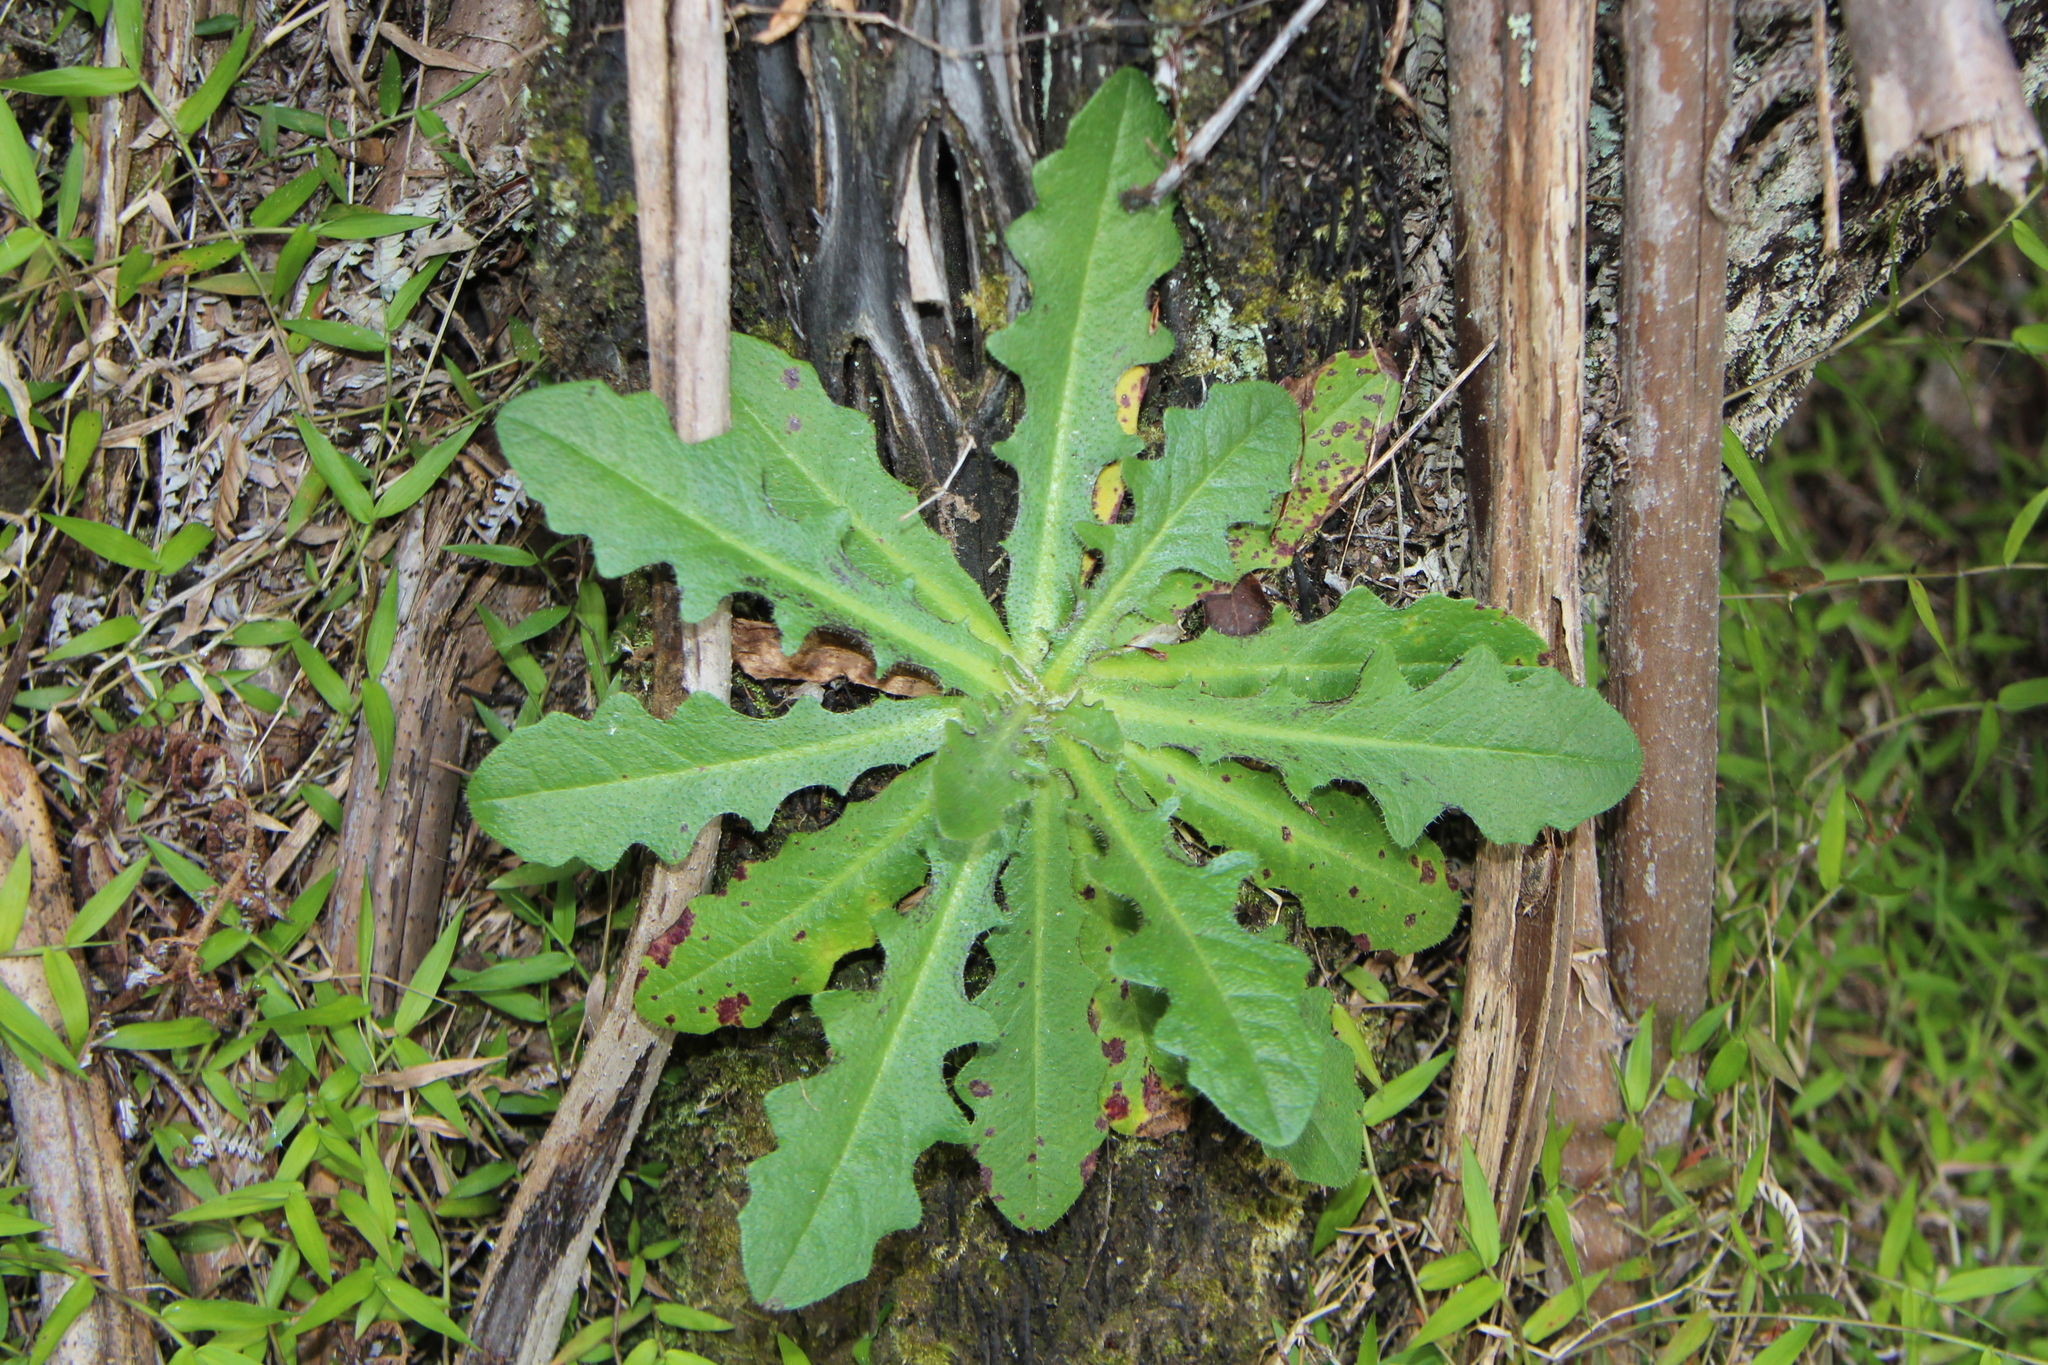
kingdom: Plantae
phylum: Tracheophyta
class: Magnoliopsida
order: Asterales
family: Asteraceae
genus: Hypochaeris
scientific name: Hypochaeris radicata
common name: Flatweed
